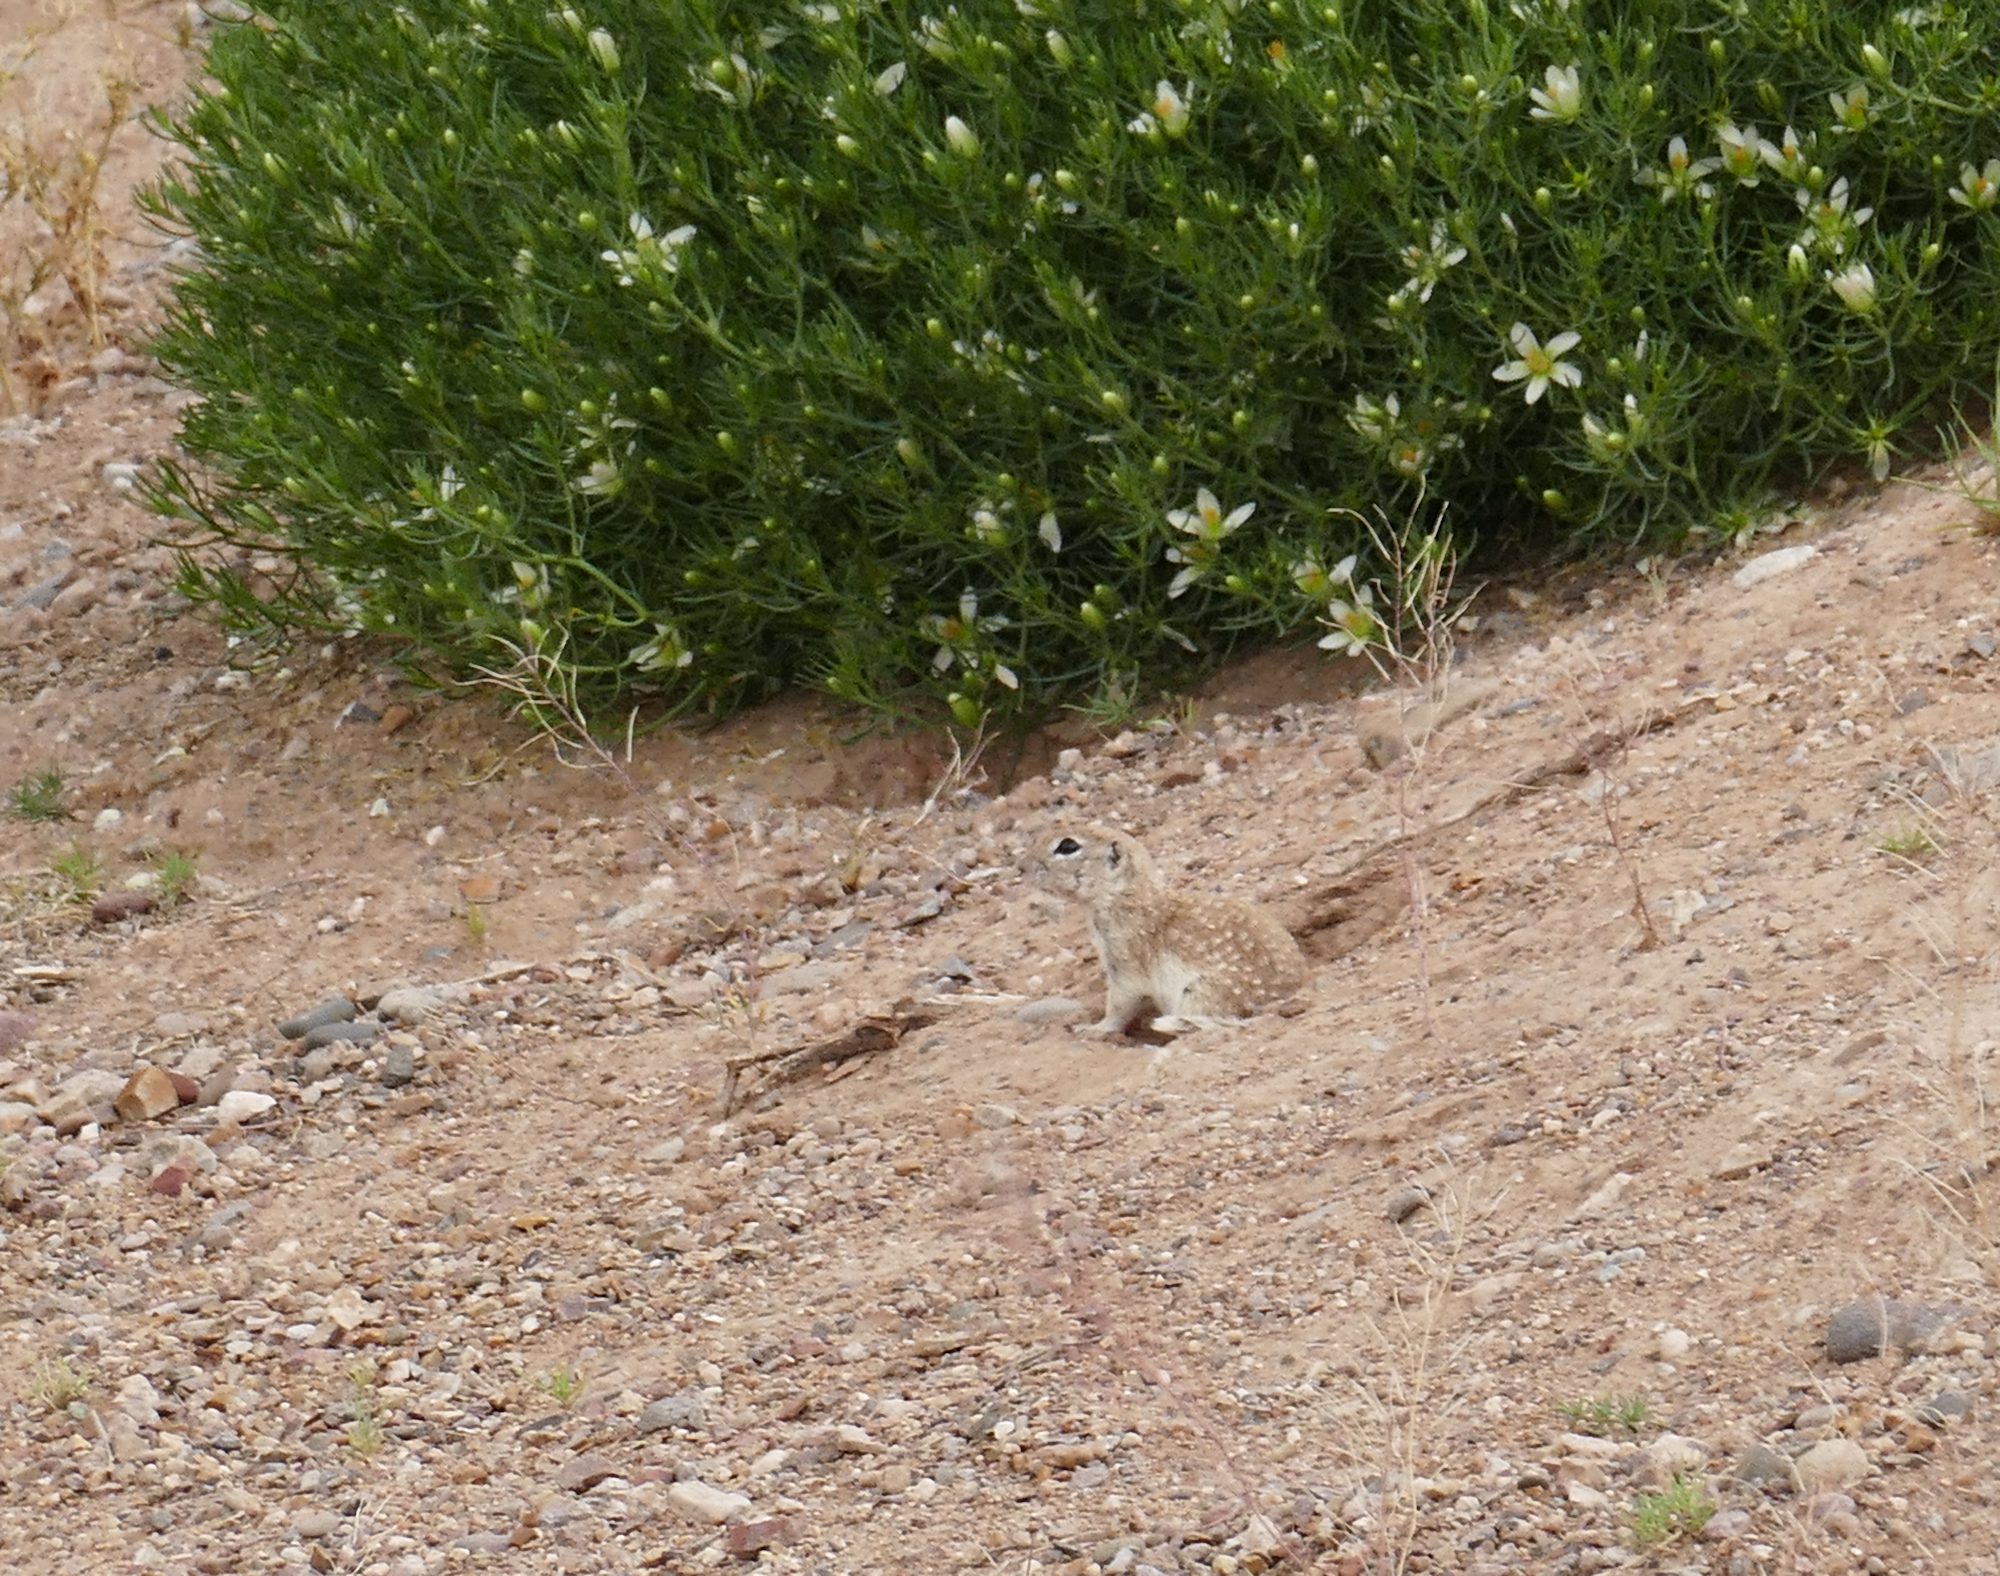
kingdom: Animalia
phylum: Chordata
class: Mammalia
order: Rodentia
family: Sciuridae
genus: Xerospermophilus
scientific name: Xerospermophilus spilosoma
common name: Spotted ground squirrel
